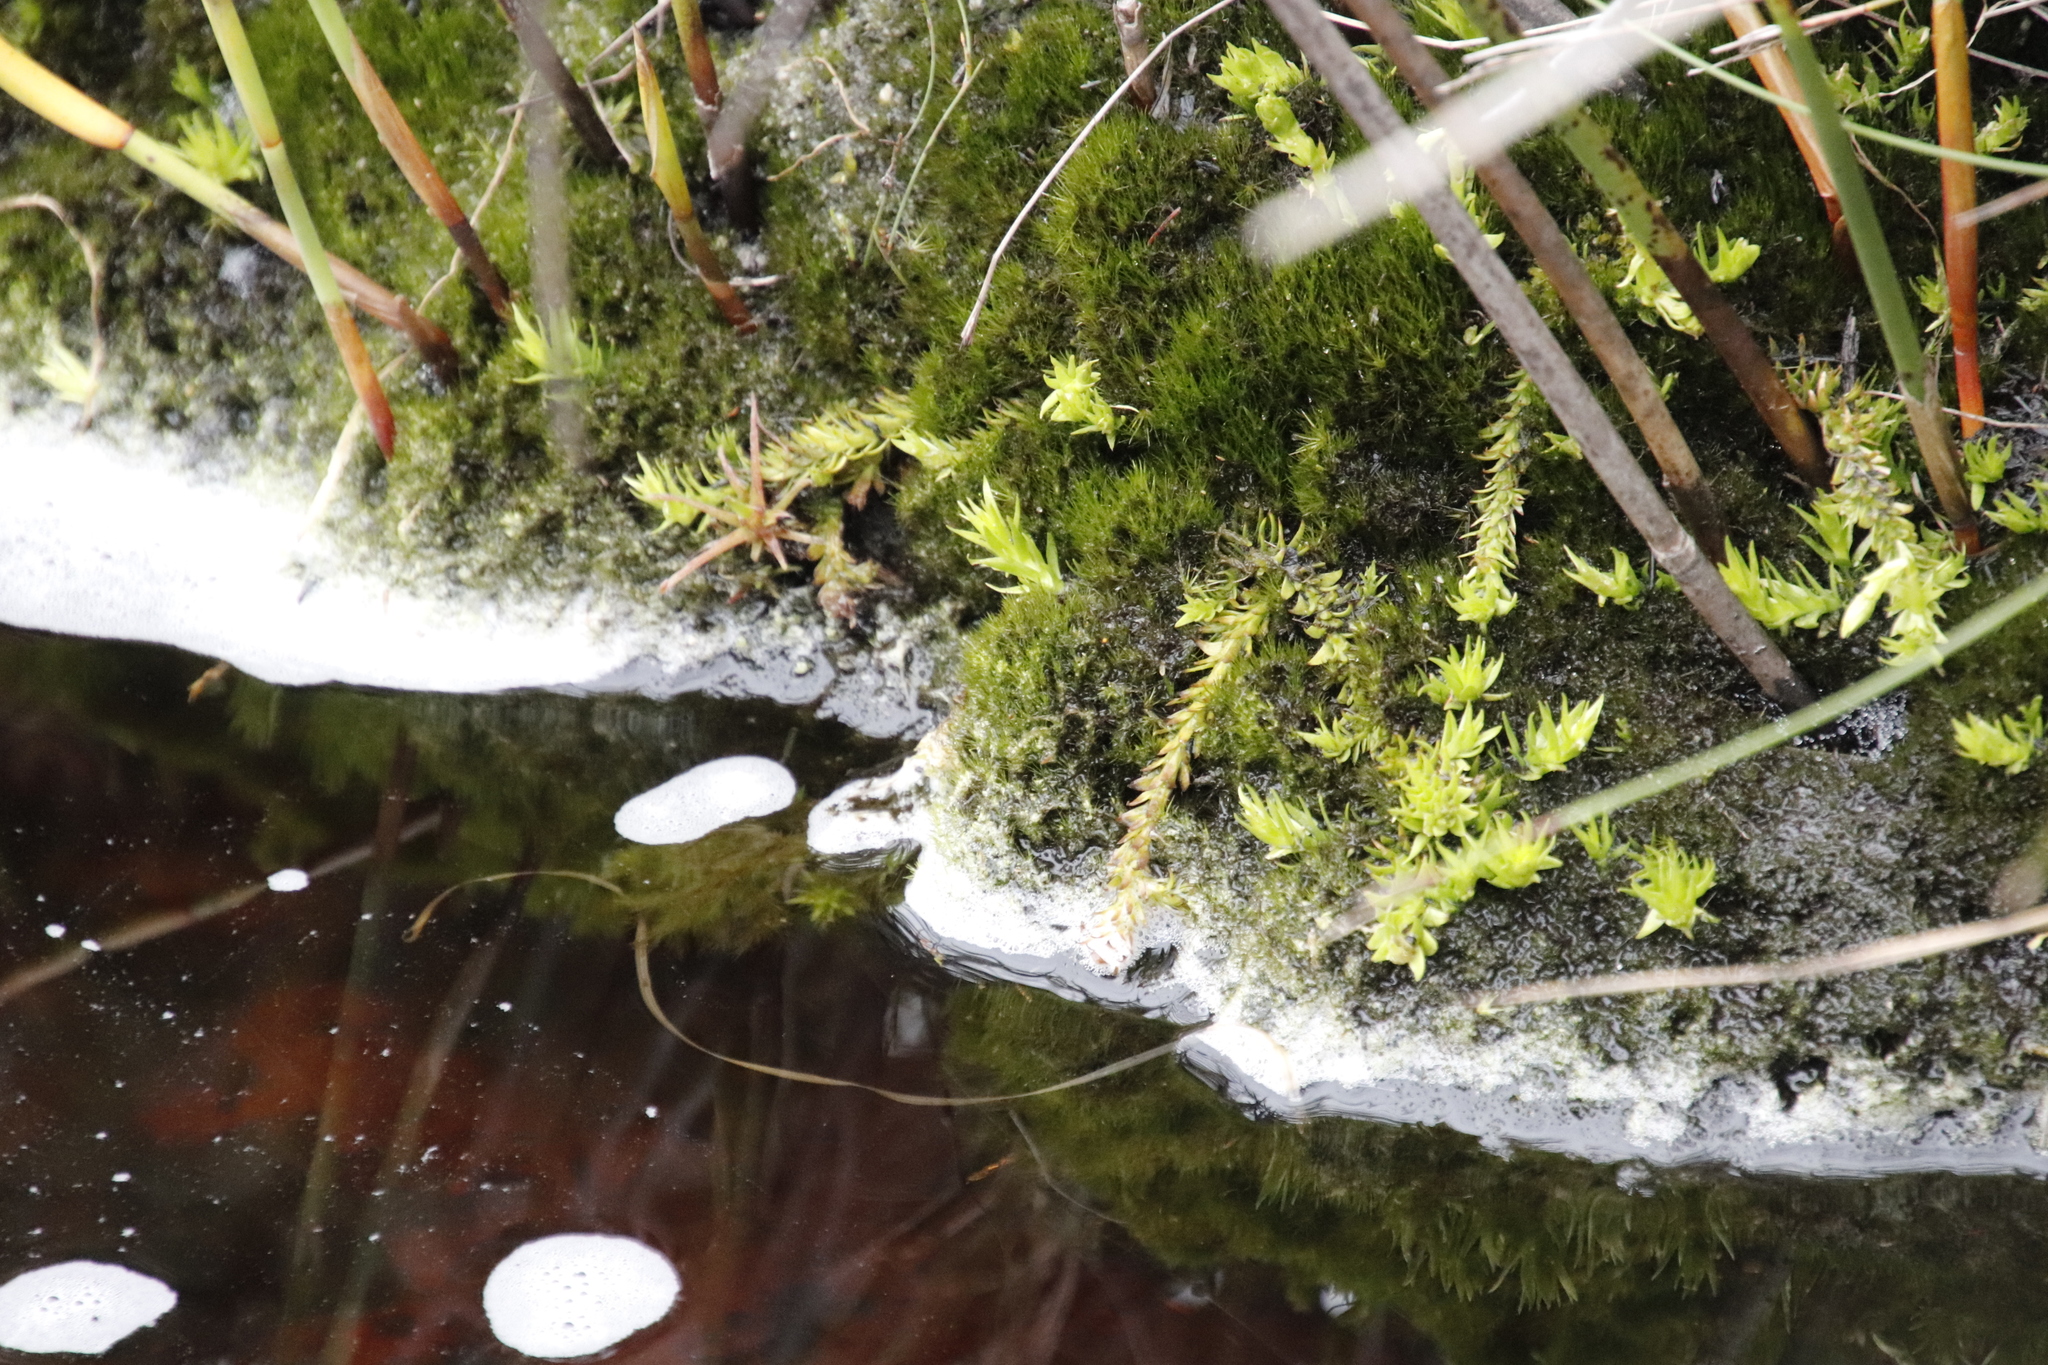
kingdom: Plantae
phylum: Tracheophyta
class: Lycopodiopsida
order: Lycopodiales
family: Lycopodiaceae
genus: Pseudolycopodiella
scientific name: Pseudolycopodiella caroliniana
